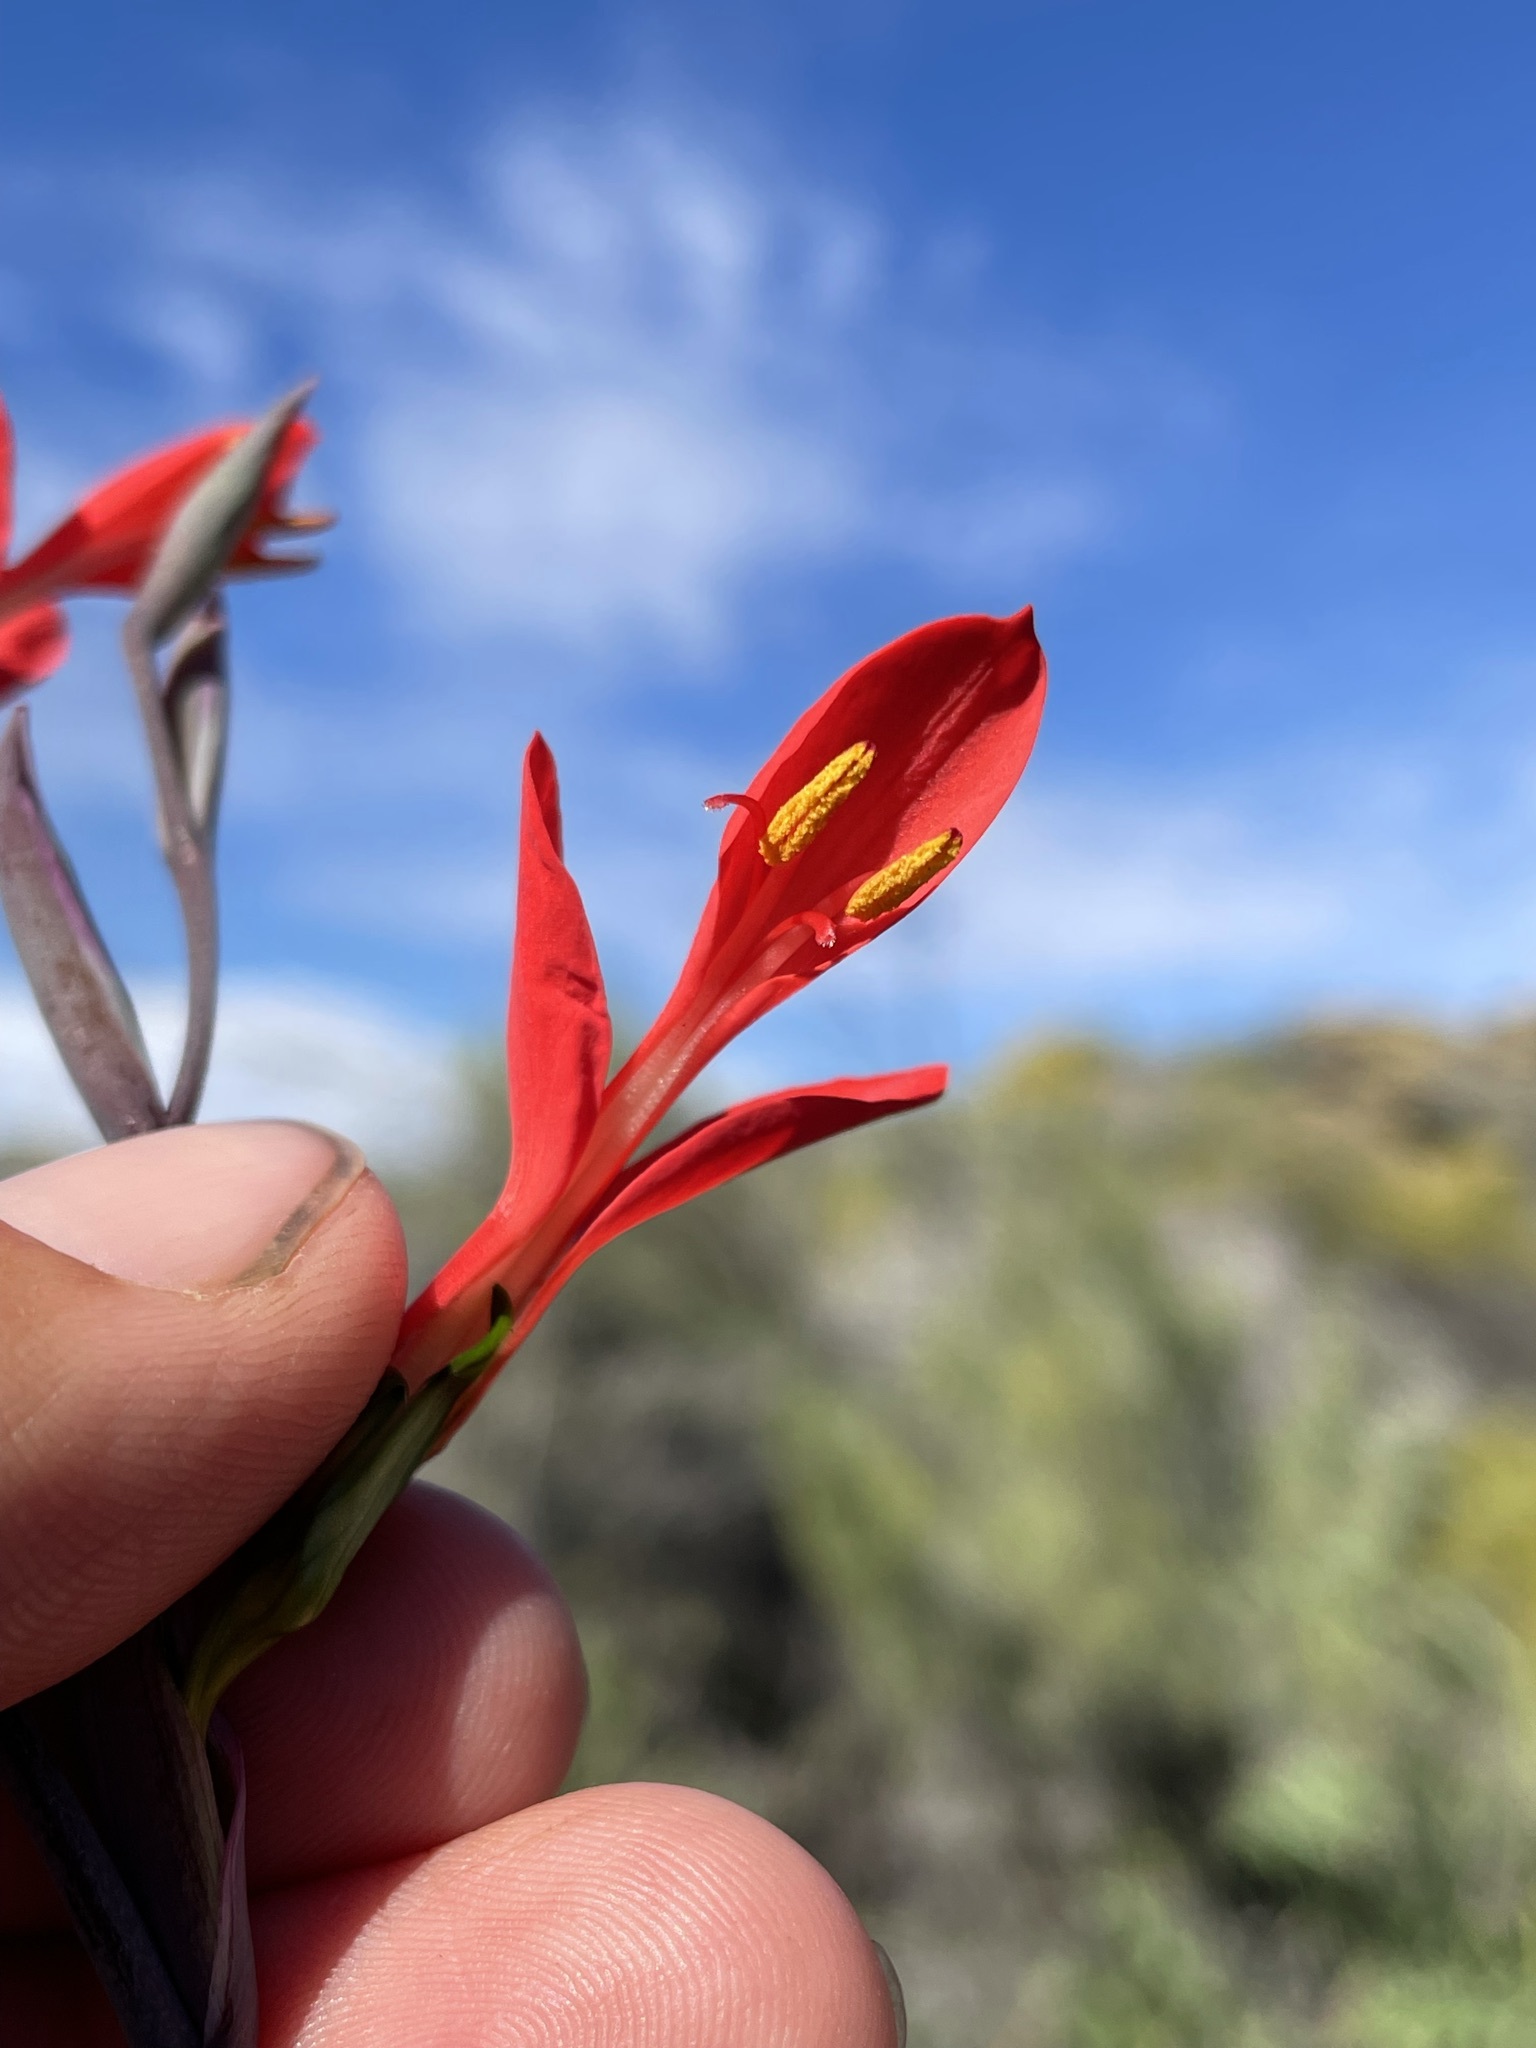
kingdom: Plantae
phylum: Tracheophyta
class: Liliopsida
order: Asparagales
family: Iridaceae
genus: Gladiolus
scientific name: Gladiolus splendens
